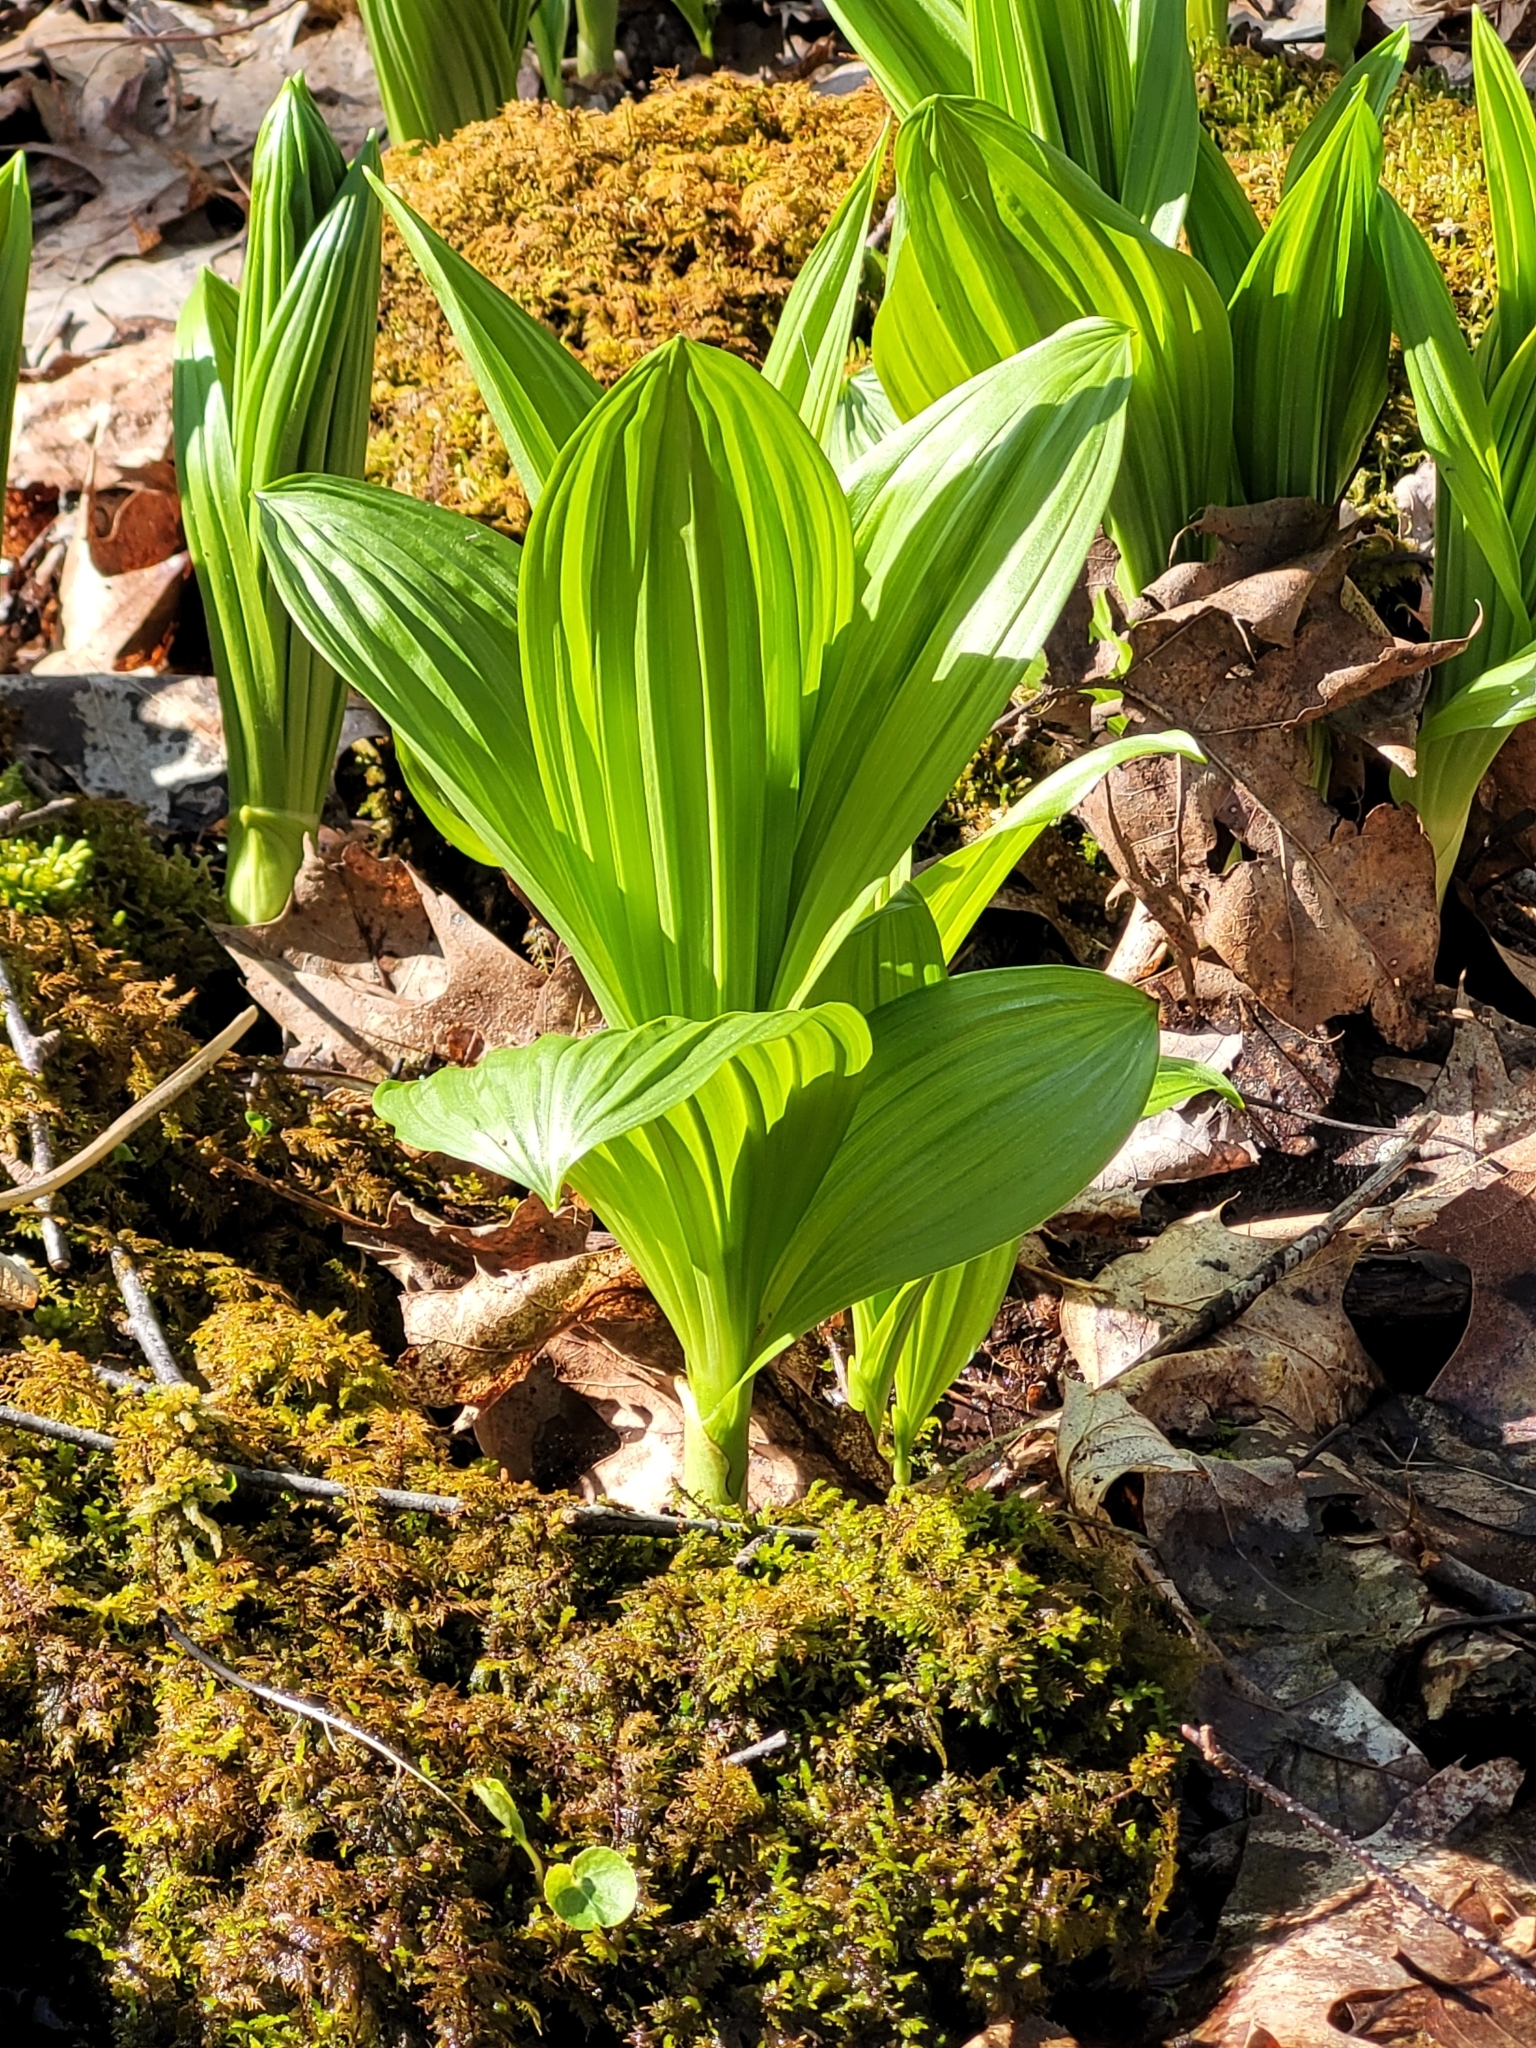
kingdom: Plantae
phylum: Tracheophyta
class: Liliopsida
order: Liliales
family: Melanthiaceae
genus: Veratrum
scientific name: Veratrum viride
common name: American false hellebore
